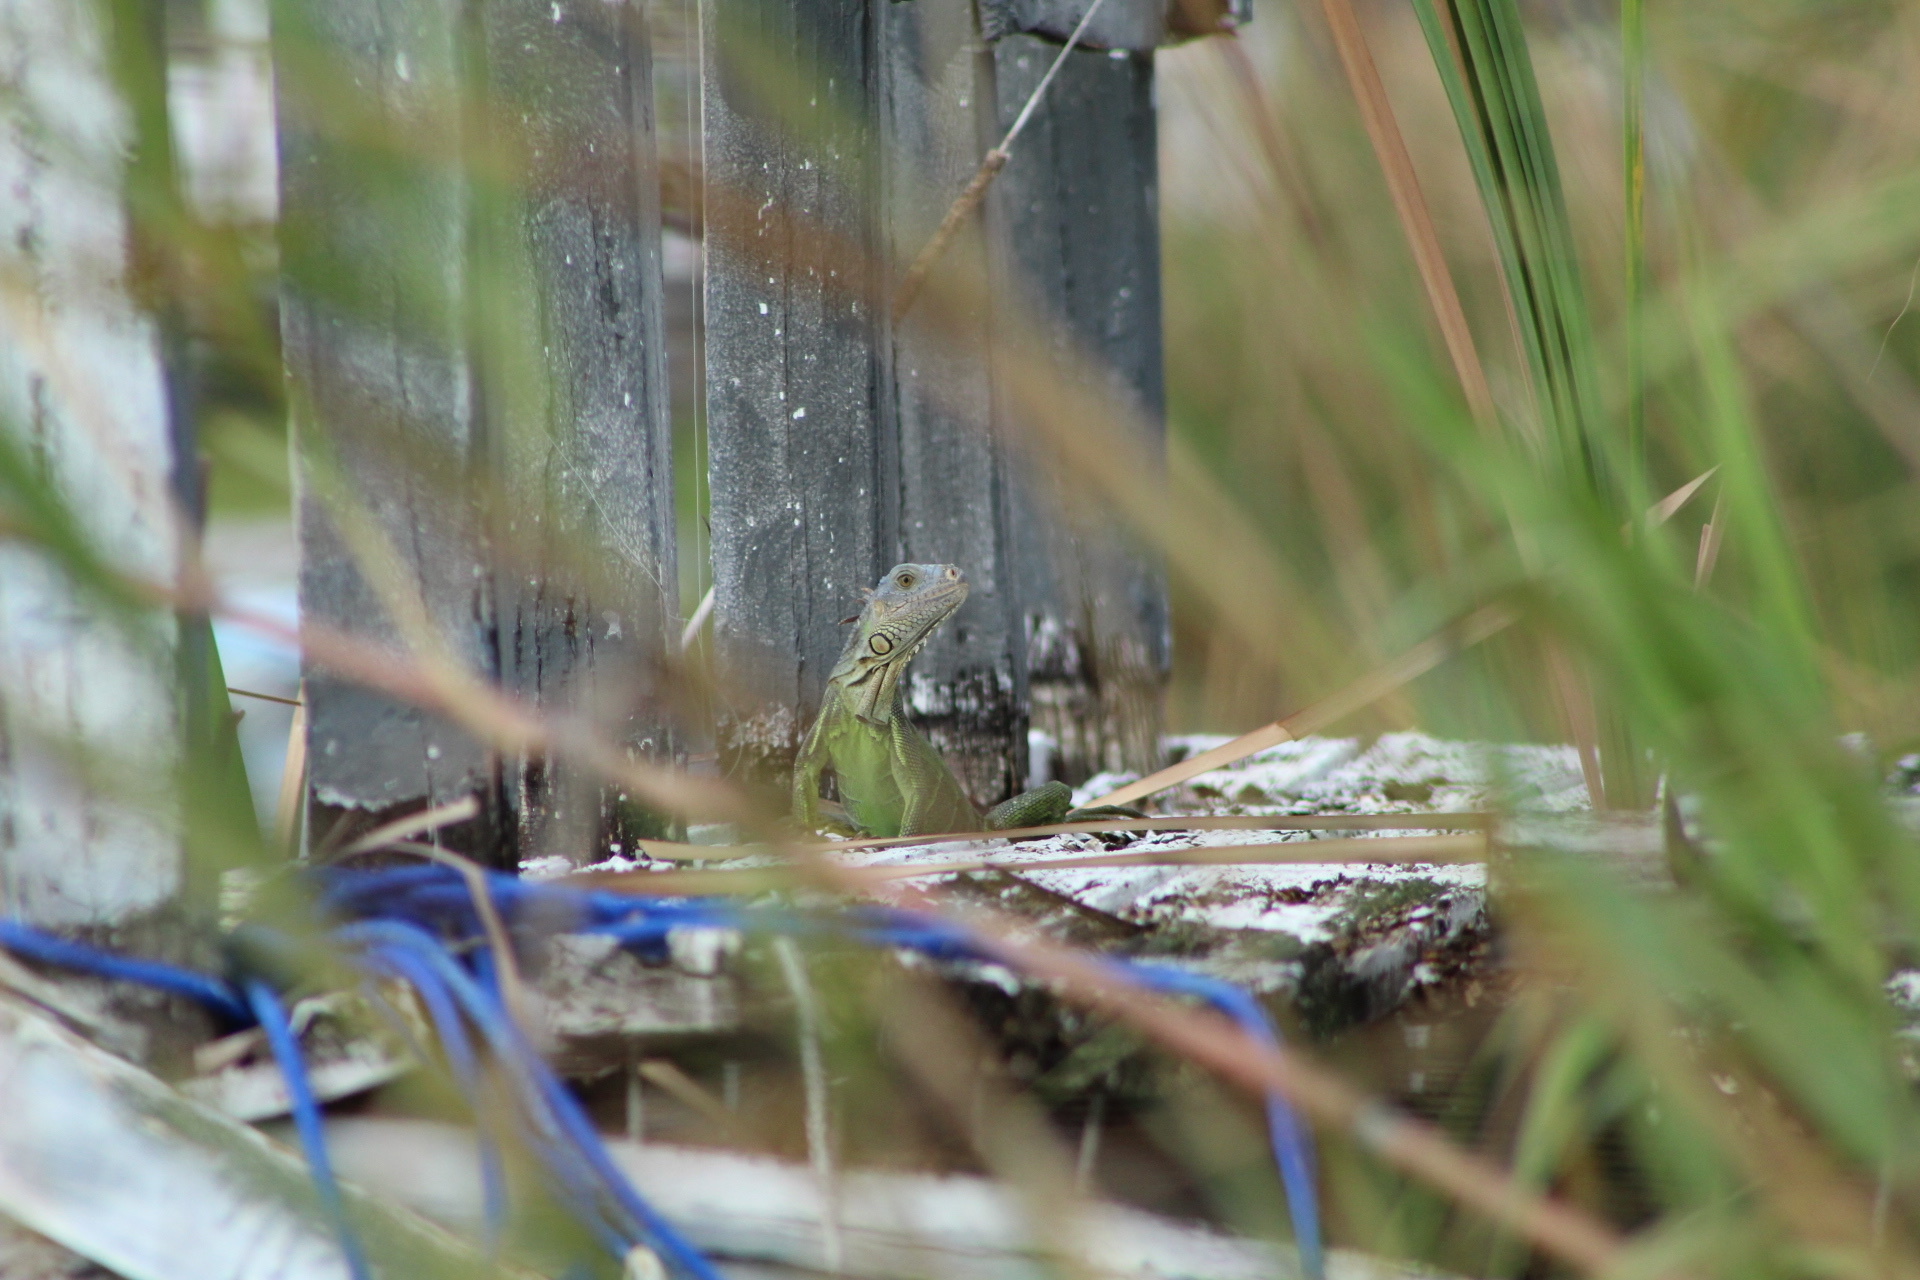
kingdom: Animalia
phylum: Chordata
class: Squamata
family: Iguanidae
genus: Iguana
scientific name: Iguana iguana
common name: Green iguana
